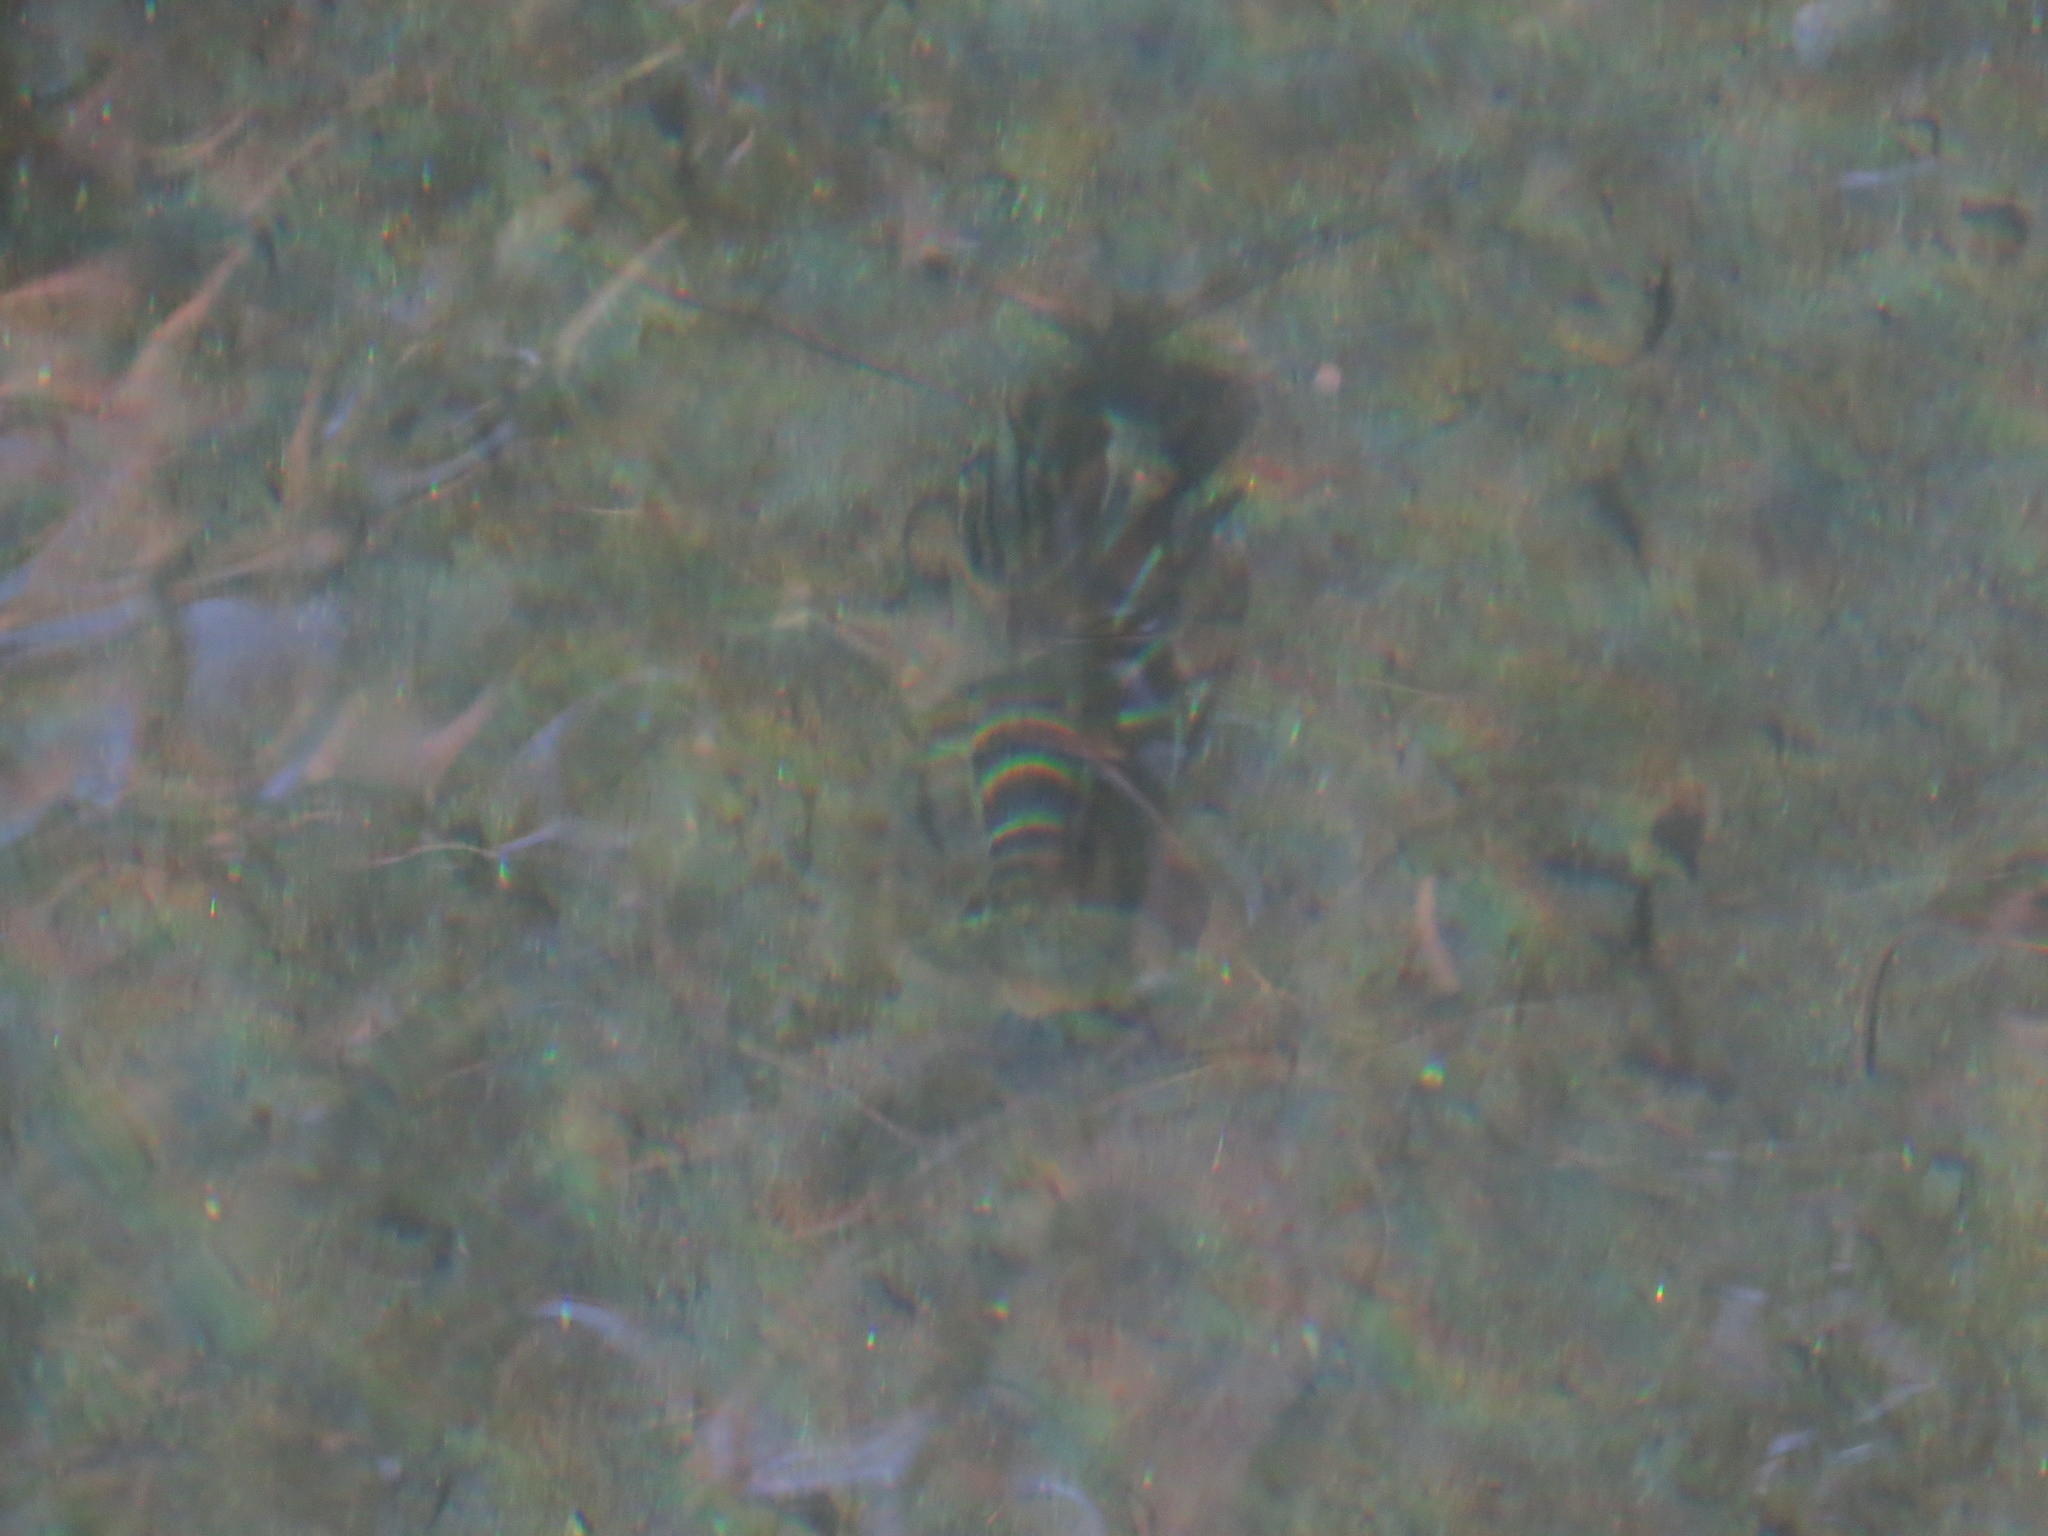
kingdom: Animalia
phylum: Arthropoda
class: Malacostraca
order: Decapoda
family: Parastacidae
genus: Cherax
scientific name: Cherax quadricarinatus
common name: Redclaw
